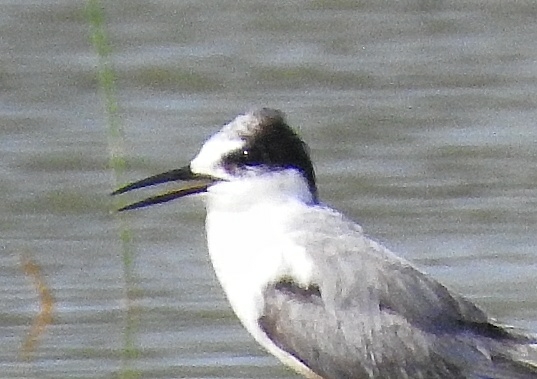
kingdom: Animalia
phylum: Chordata
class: Aves
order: Charadriiformes
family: Laridae
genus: Sternula
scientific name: Sternula albifrons
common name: Little tern
